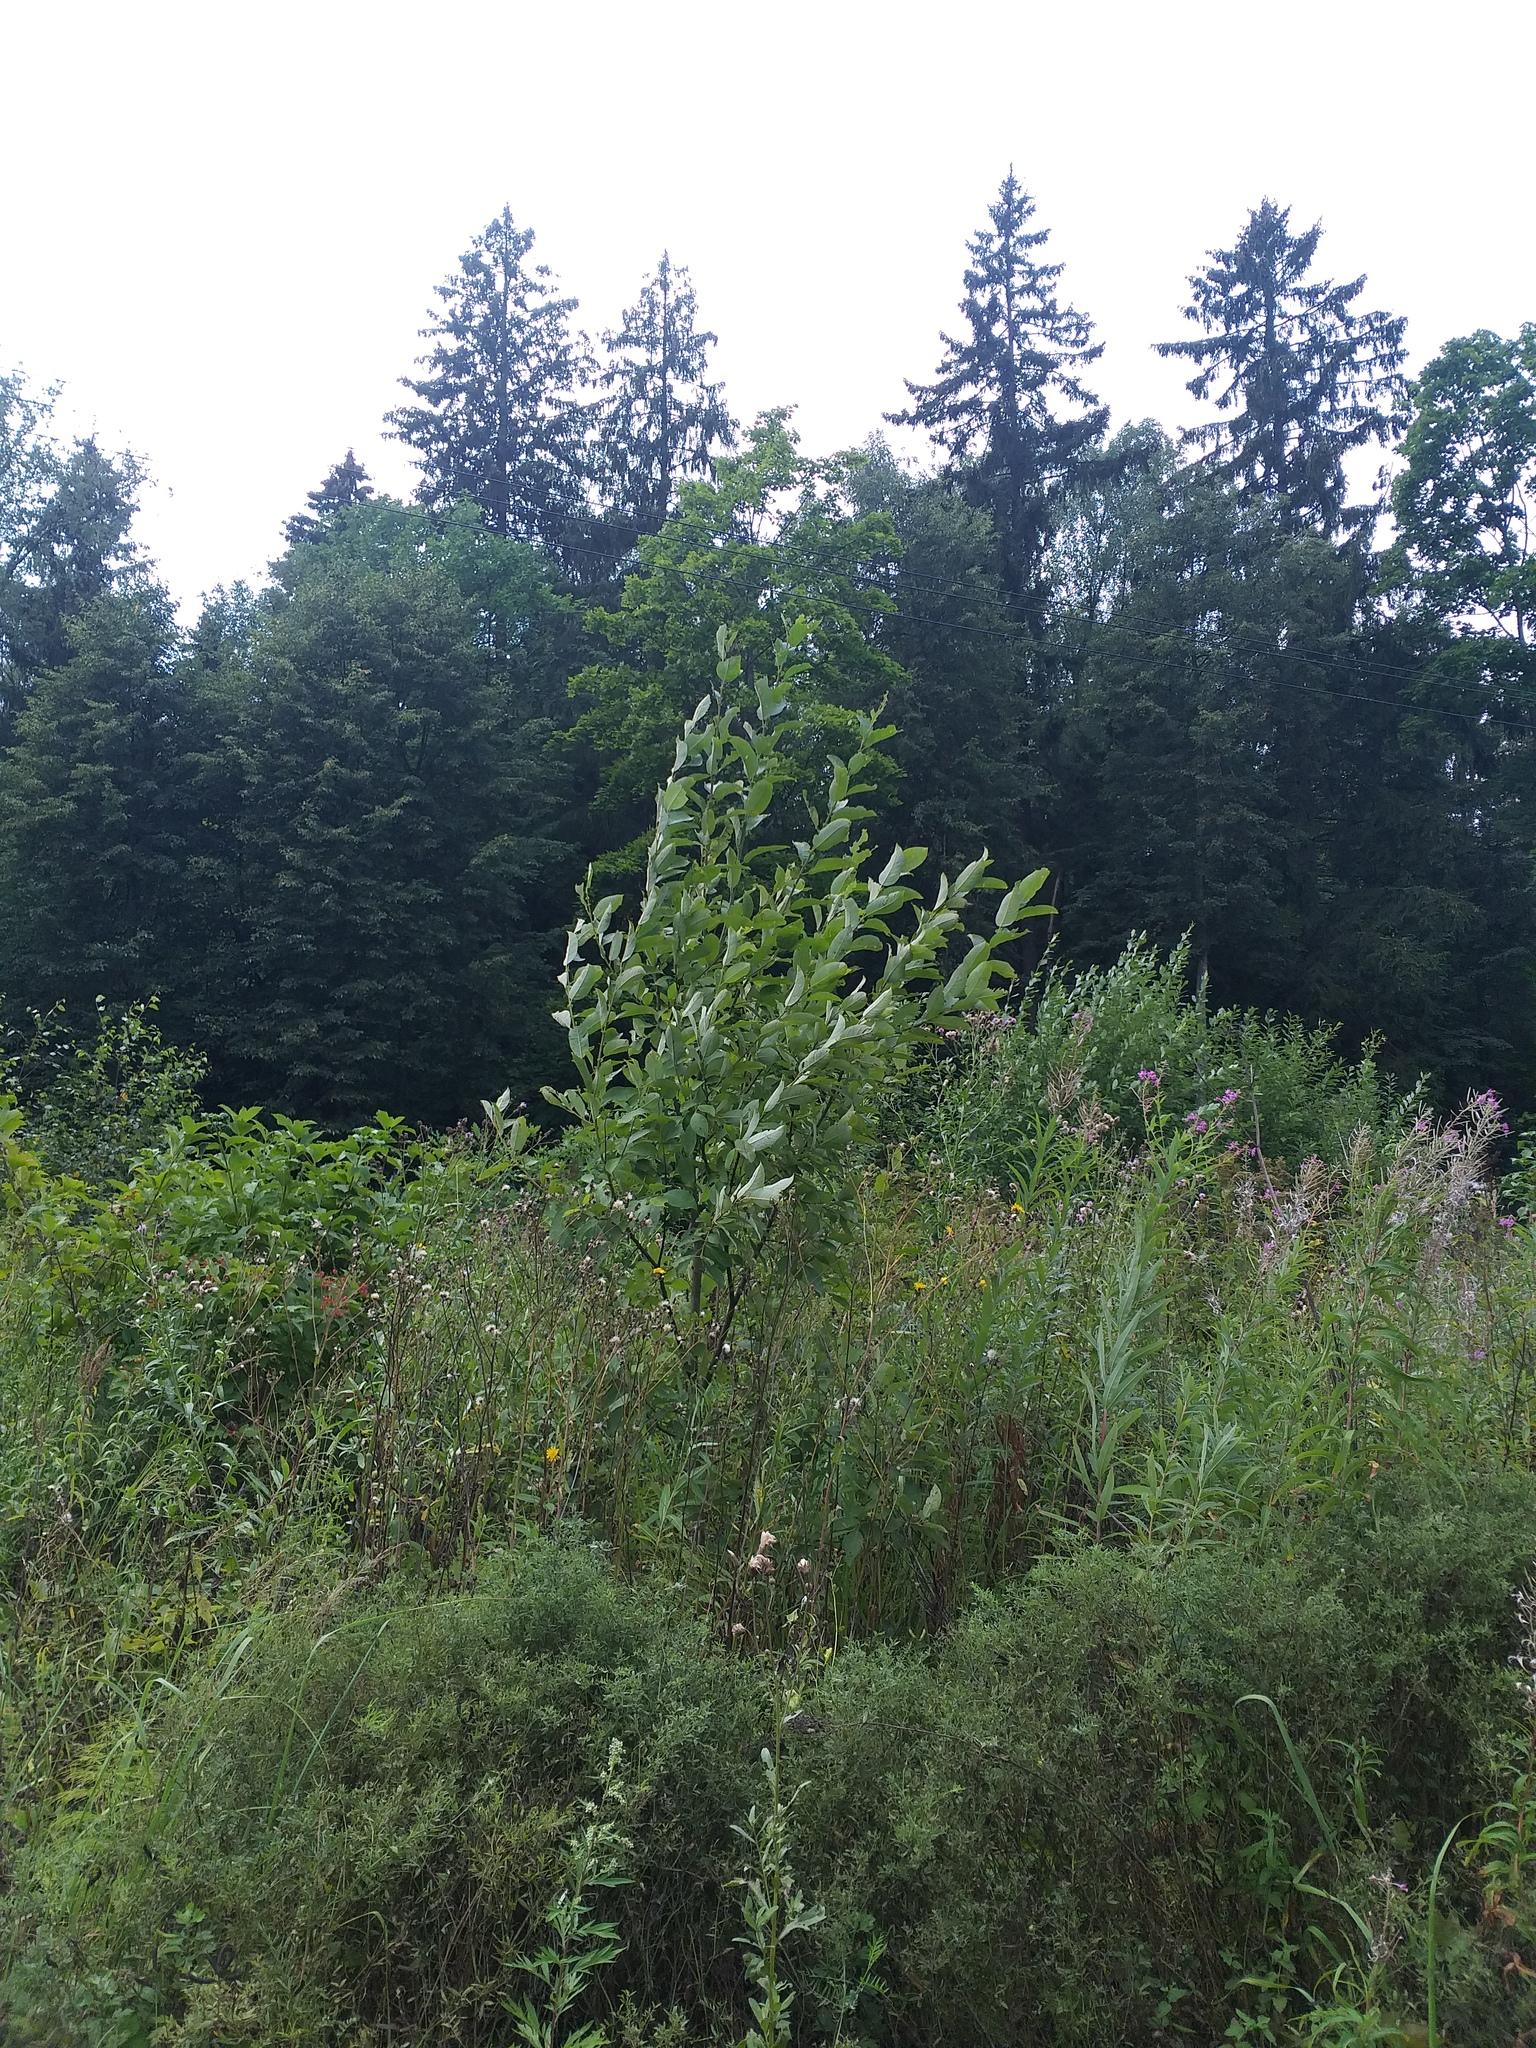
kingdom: Plantae
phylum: Tracheophyta
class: Magnoliopsida
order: Malpighiales
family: Salicaceae
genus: Salix
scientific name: Salix caprea
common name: Goat willow
